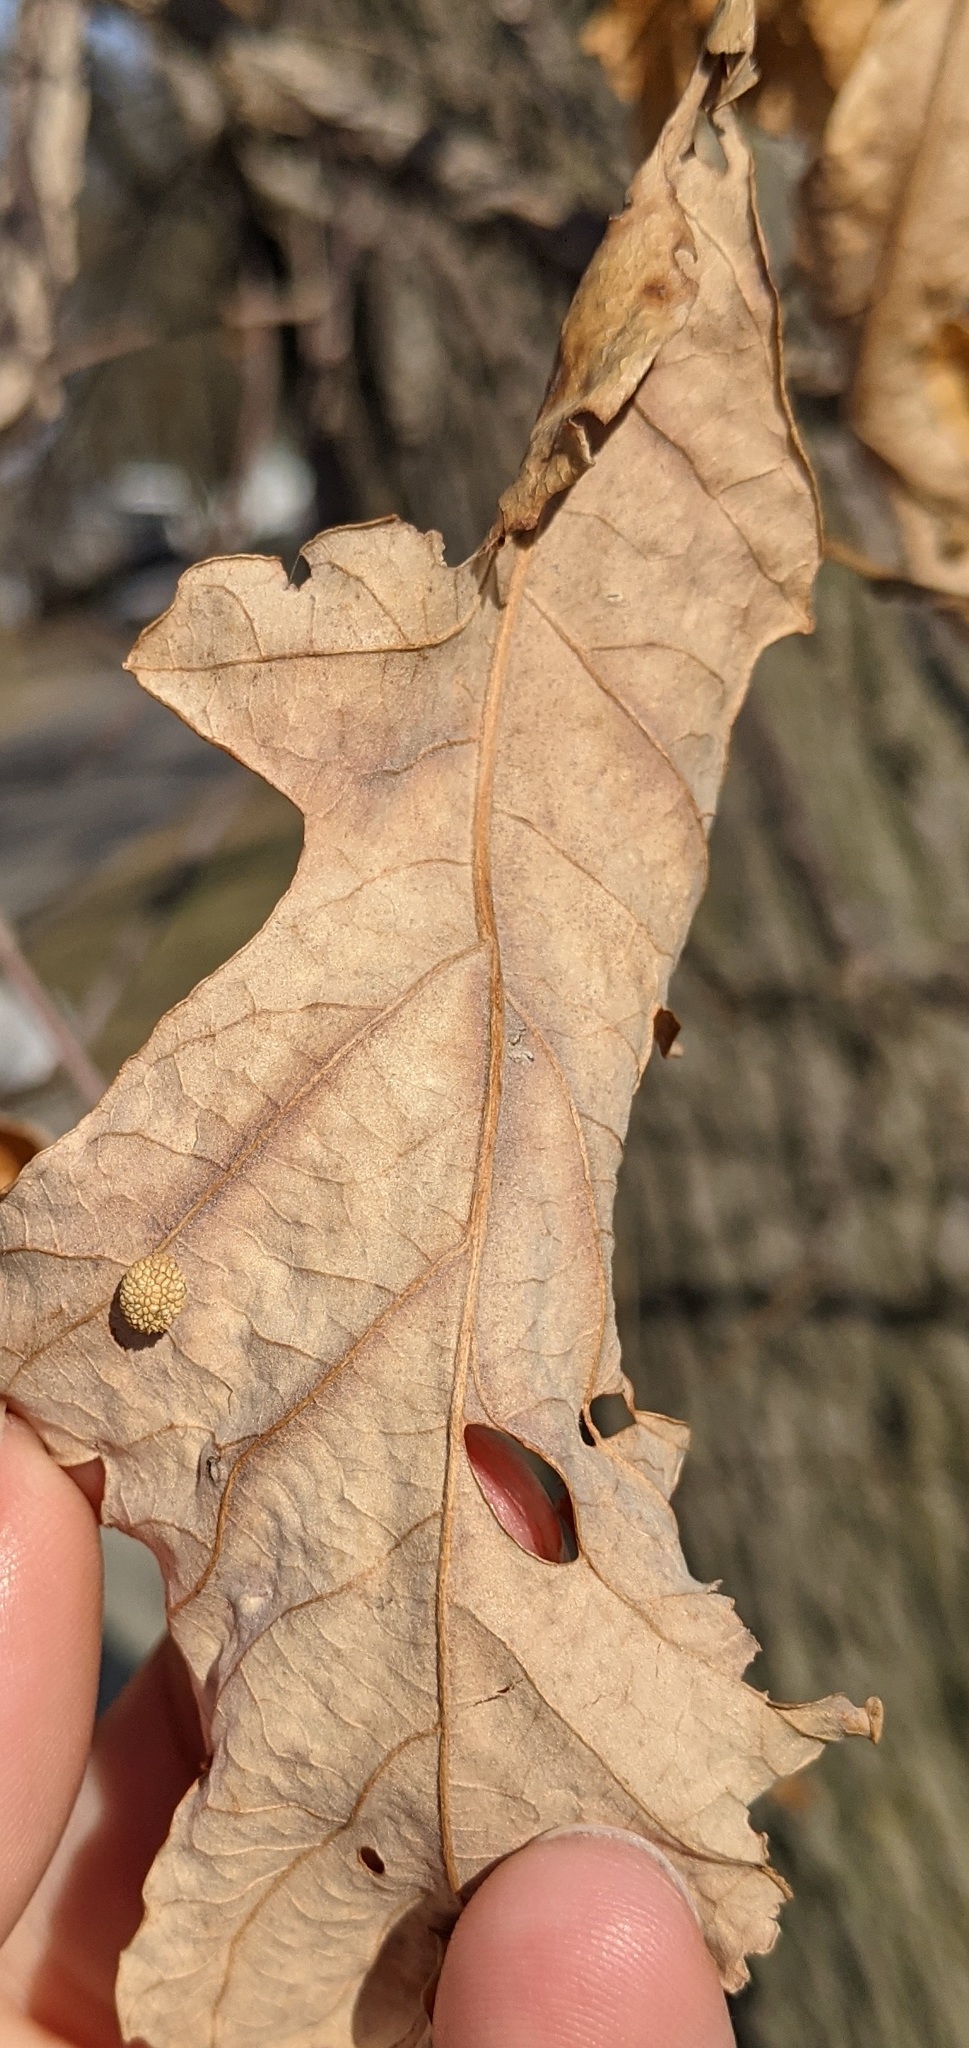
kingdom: Animalia
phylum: Arthropoda
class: Insecta
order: Hymenoptera
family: Cynipidae
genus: Acraspis
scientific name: Acraspis
